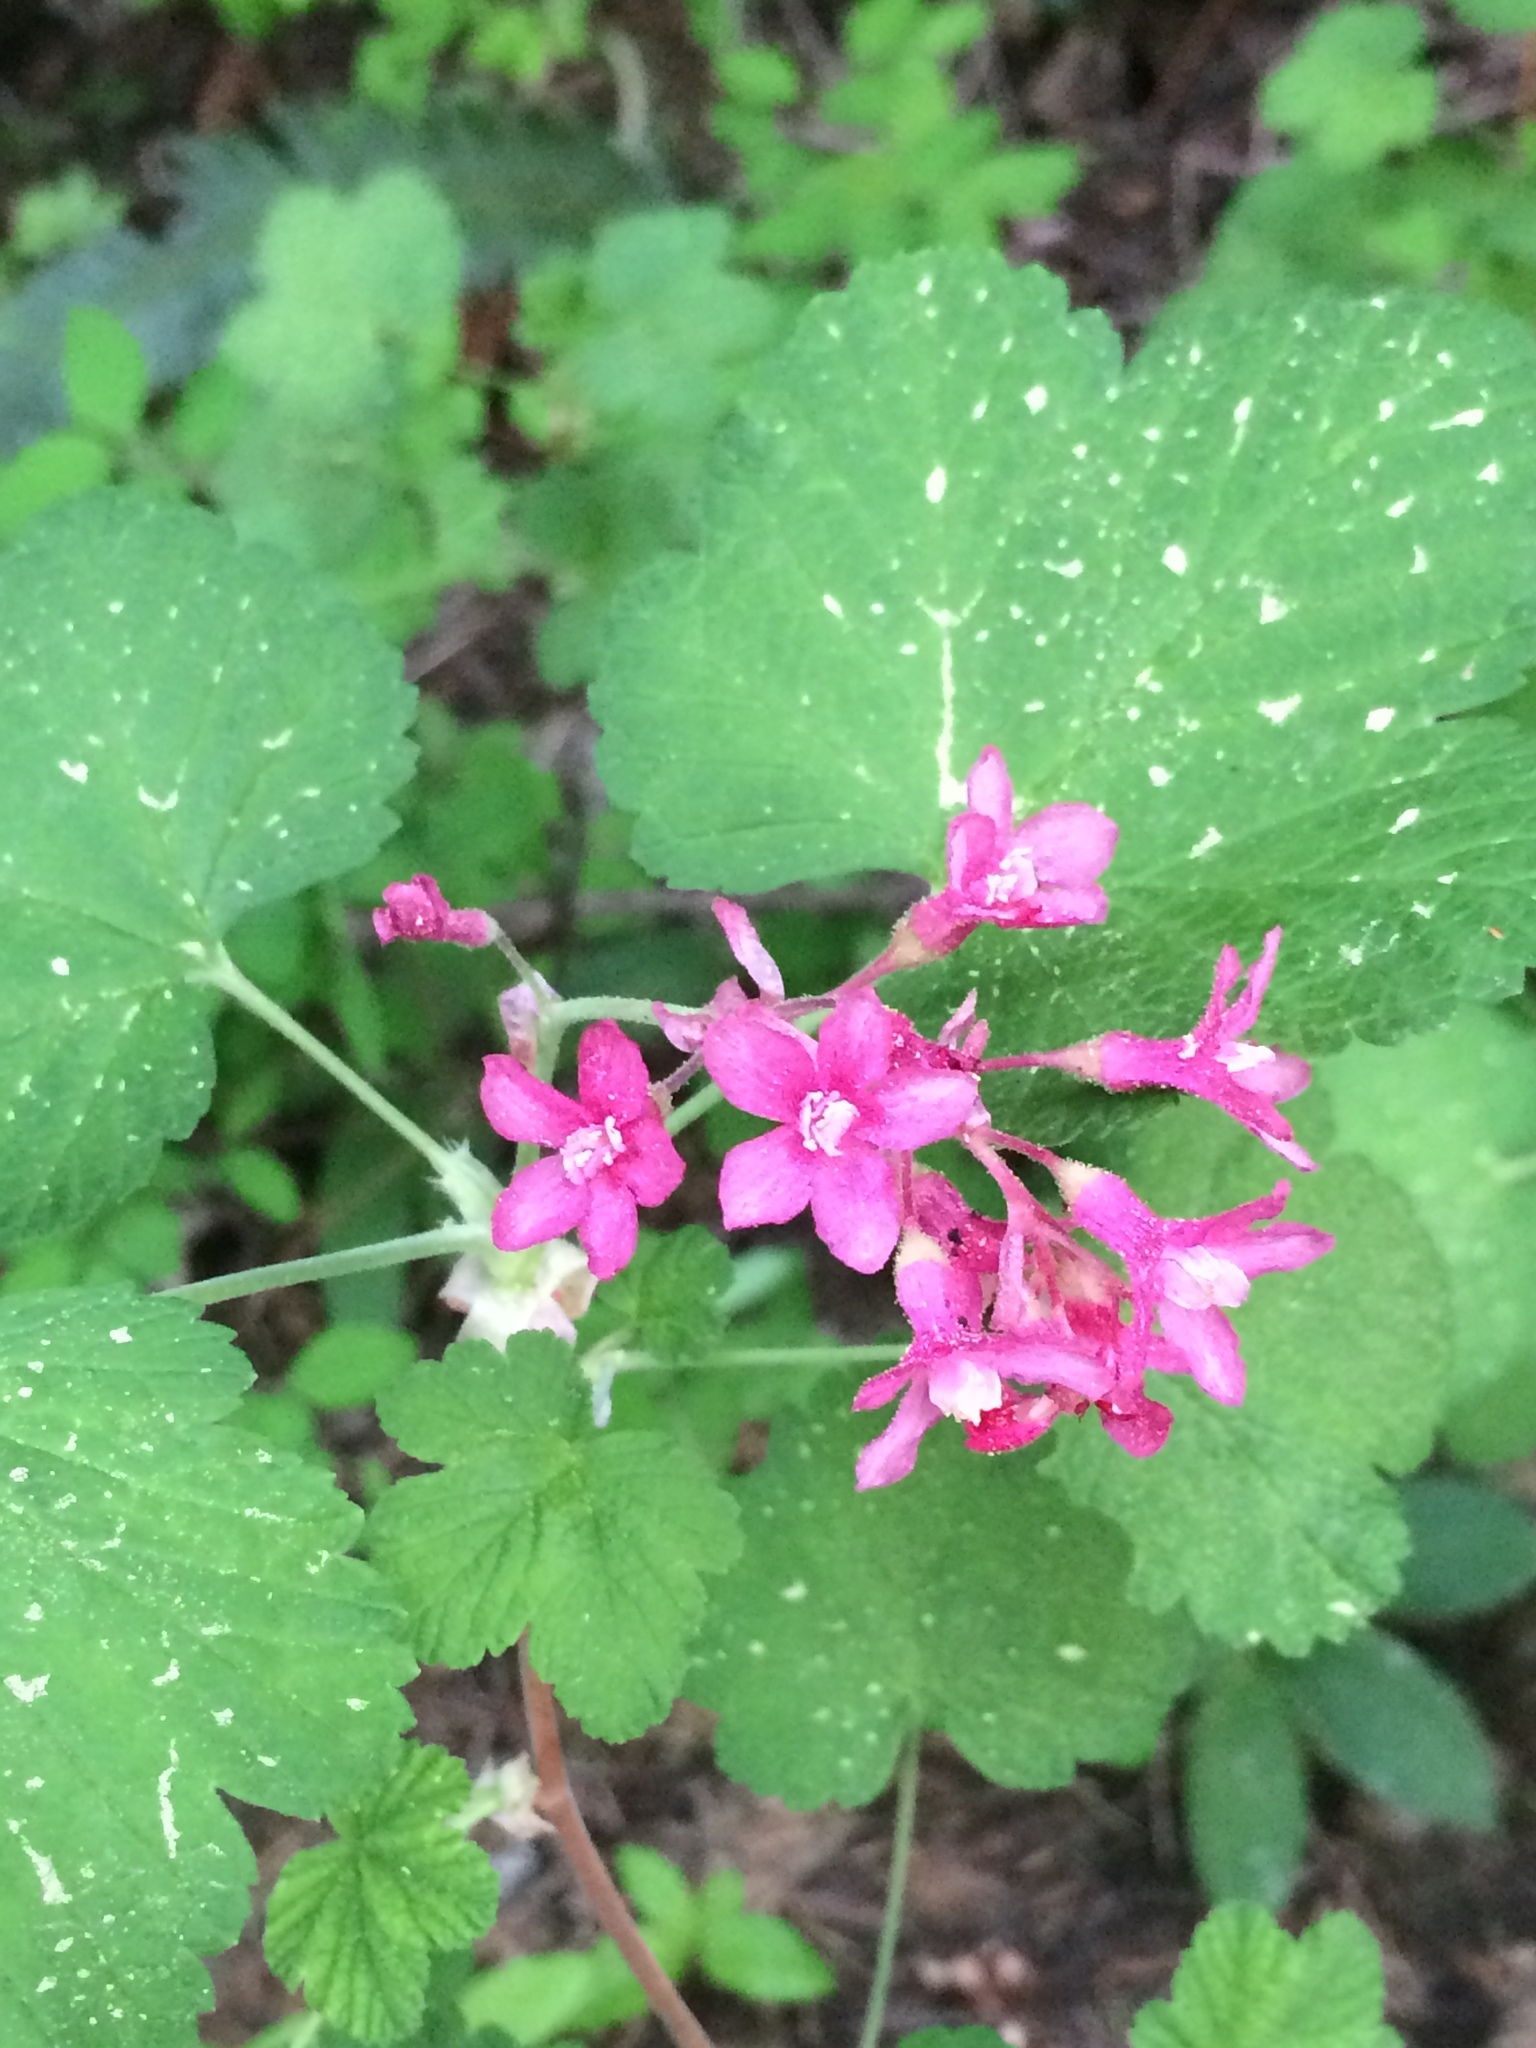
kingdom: Plantae
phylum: Tracheophyta
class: Magnoliopsida
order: Saxifragales
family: Grossulariaceae
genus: Ribes
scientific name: Ribes sanguineum
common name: Flowering currant
